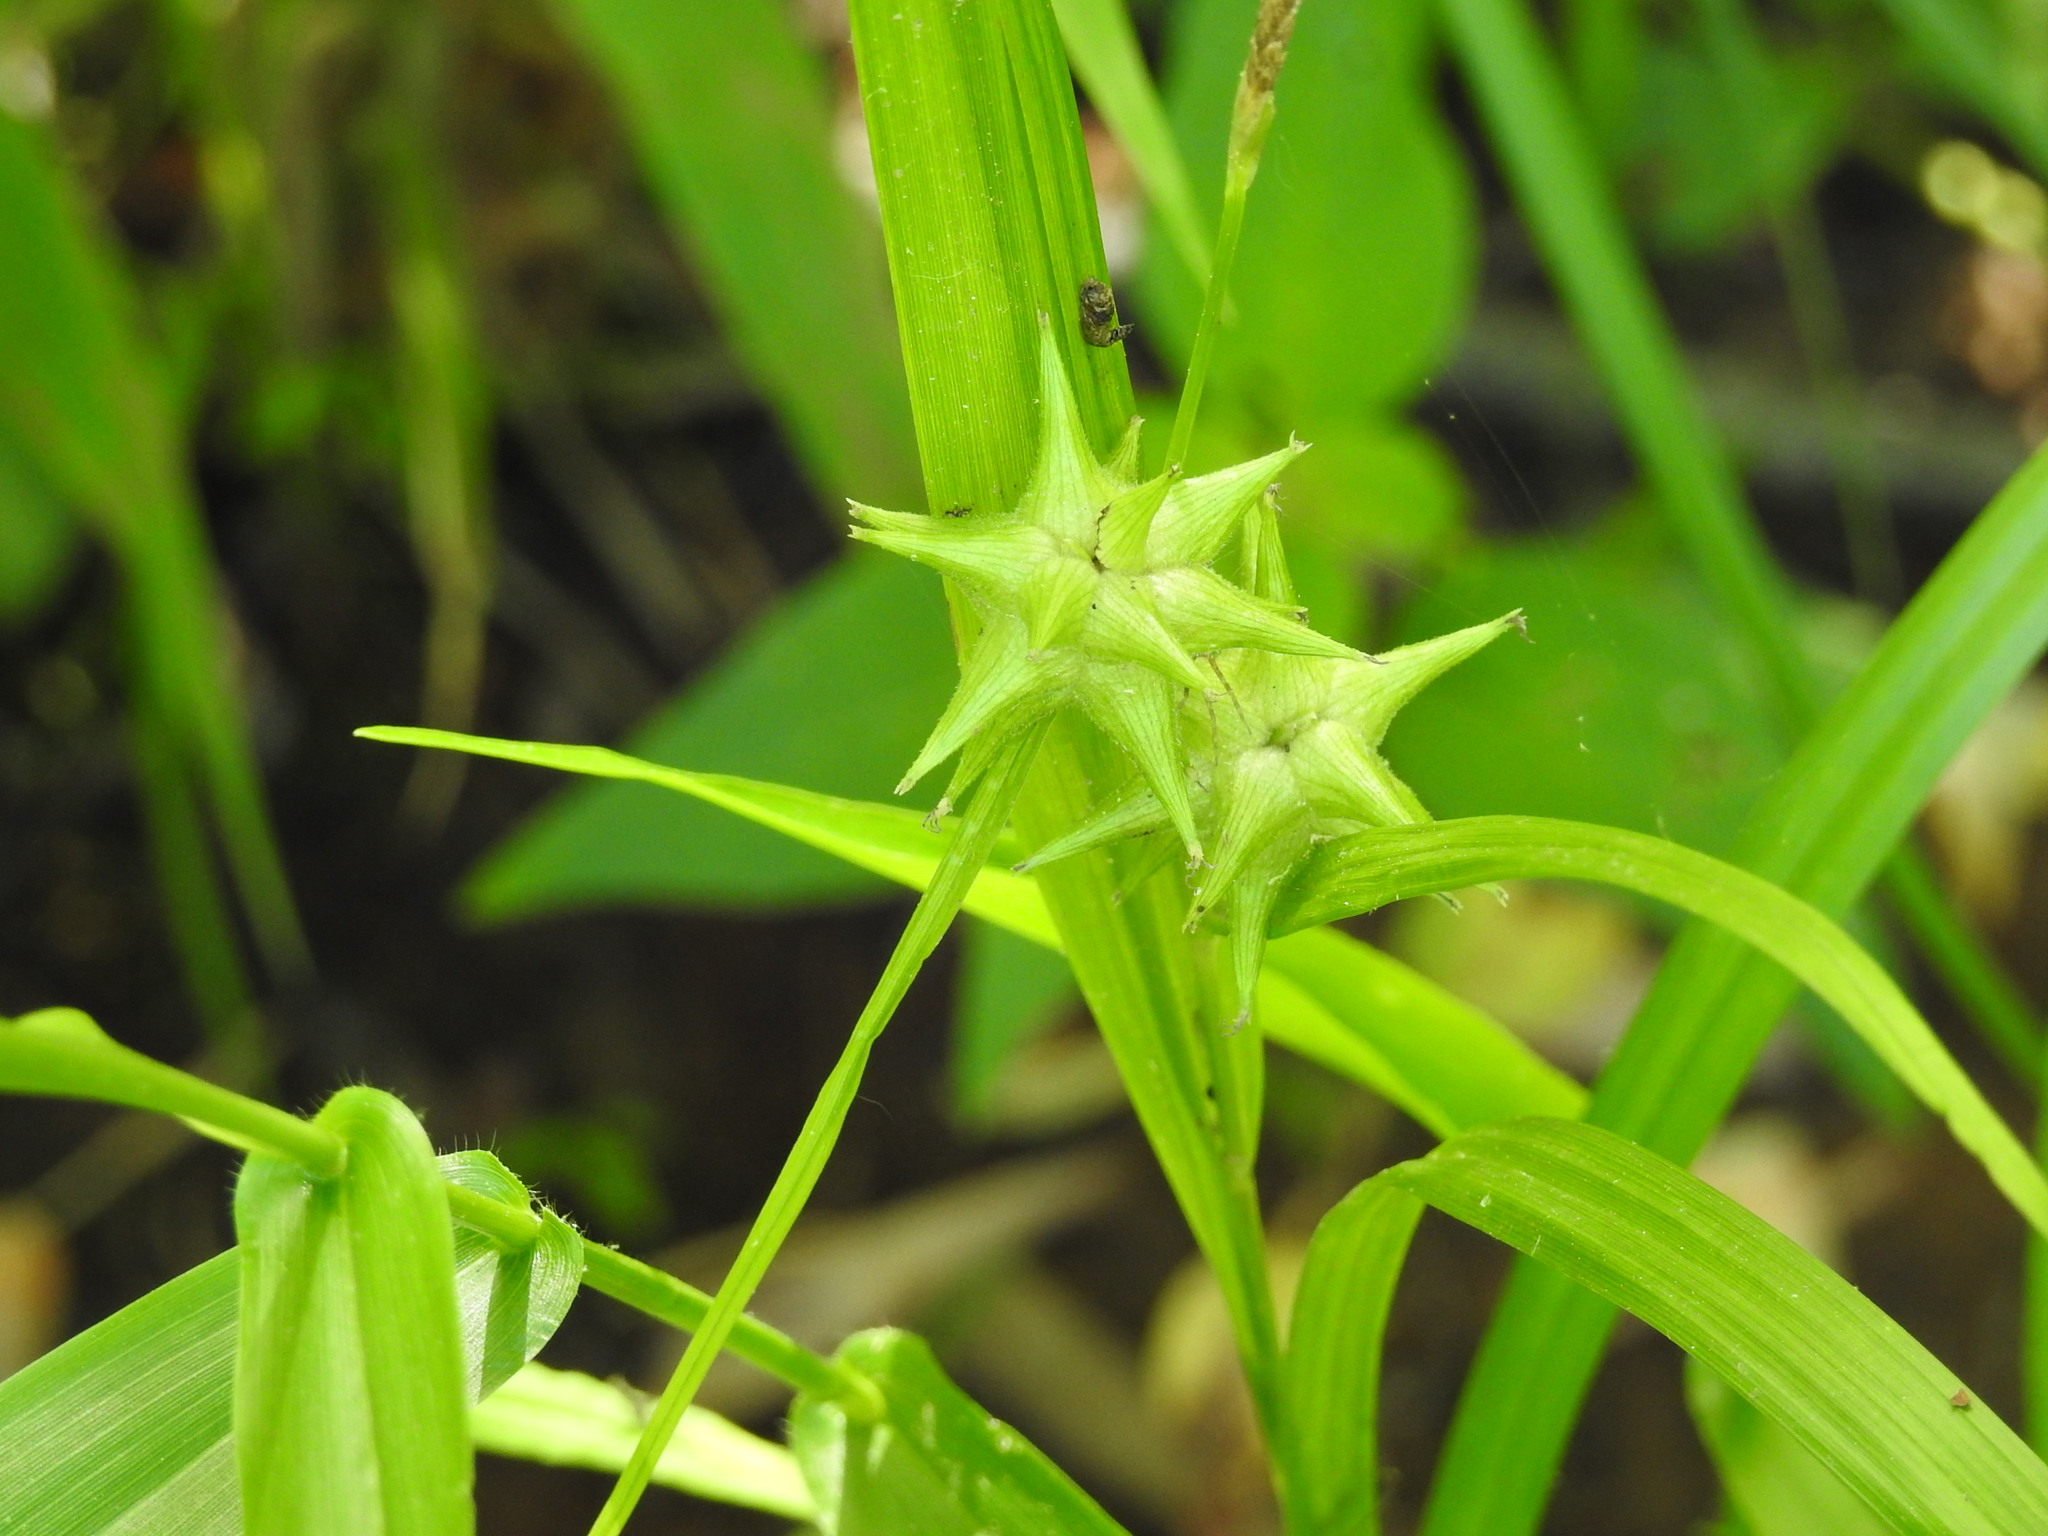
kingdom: Plantae
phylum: Tracheophyta
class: Liliopsida
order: Poales
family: Cyperaceae
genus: Carex
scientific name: Carex grayi
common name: Asa gray's sedge
